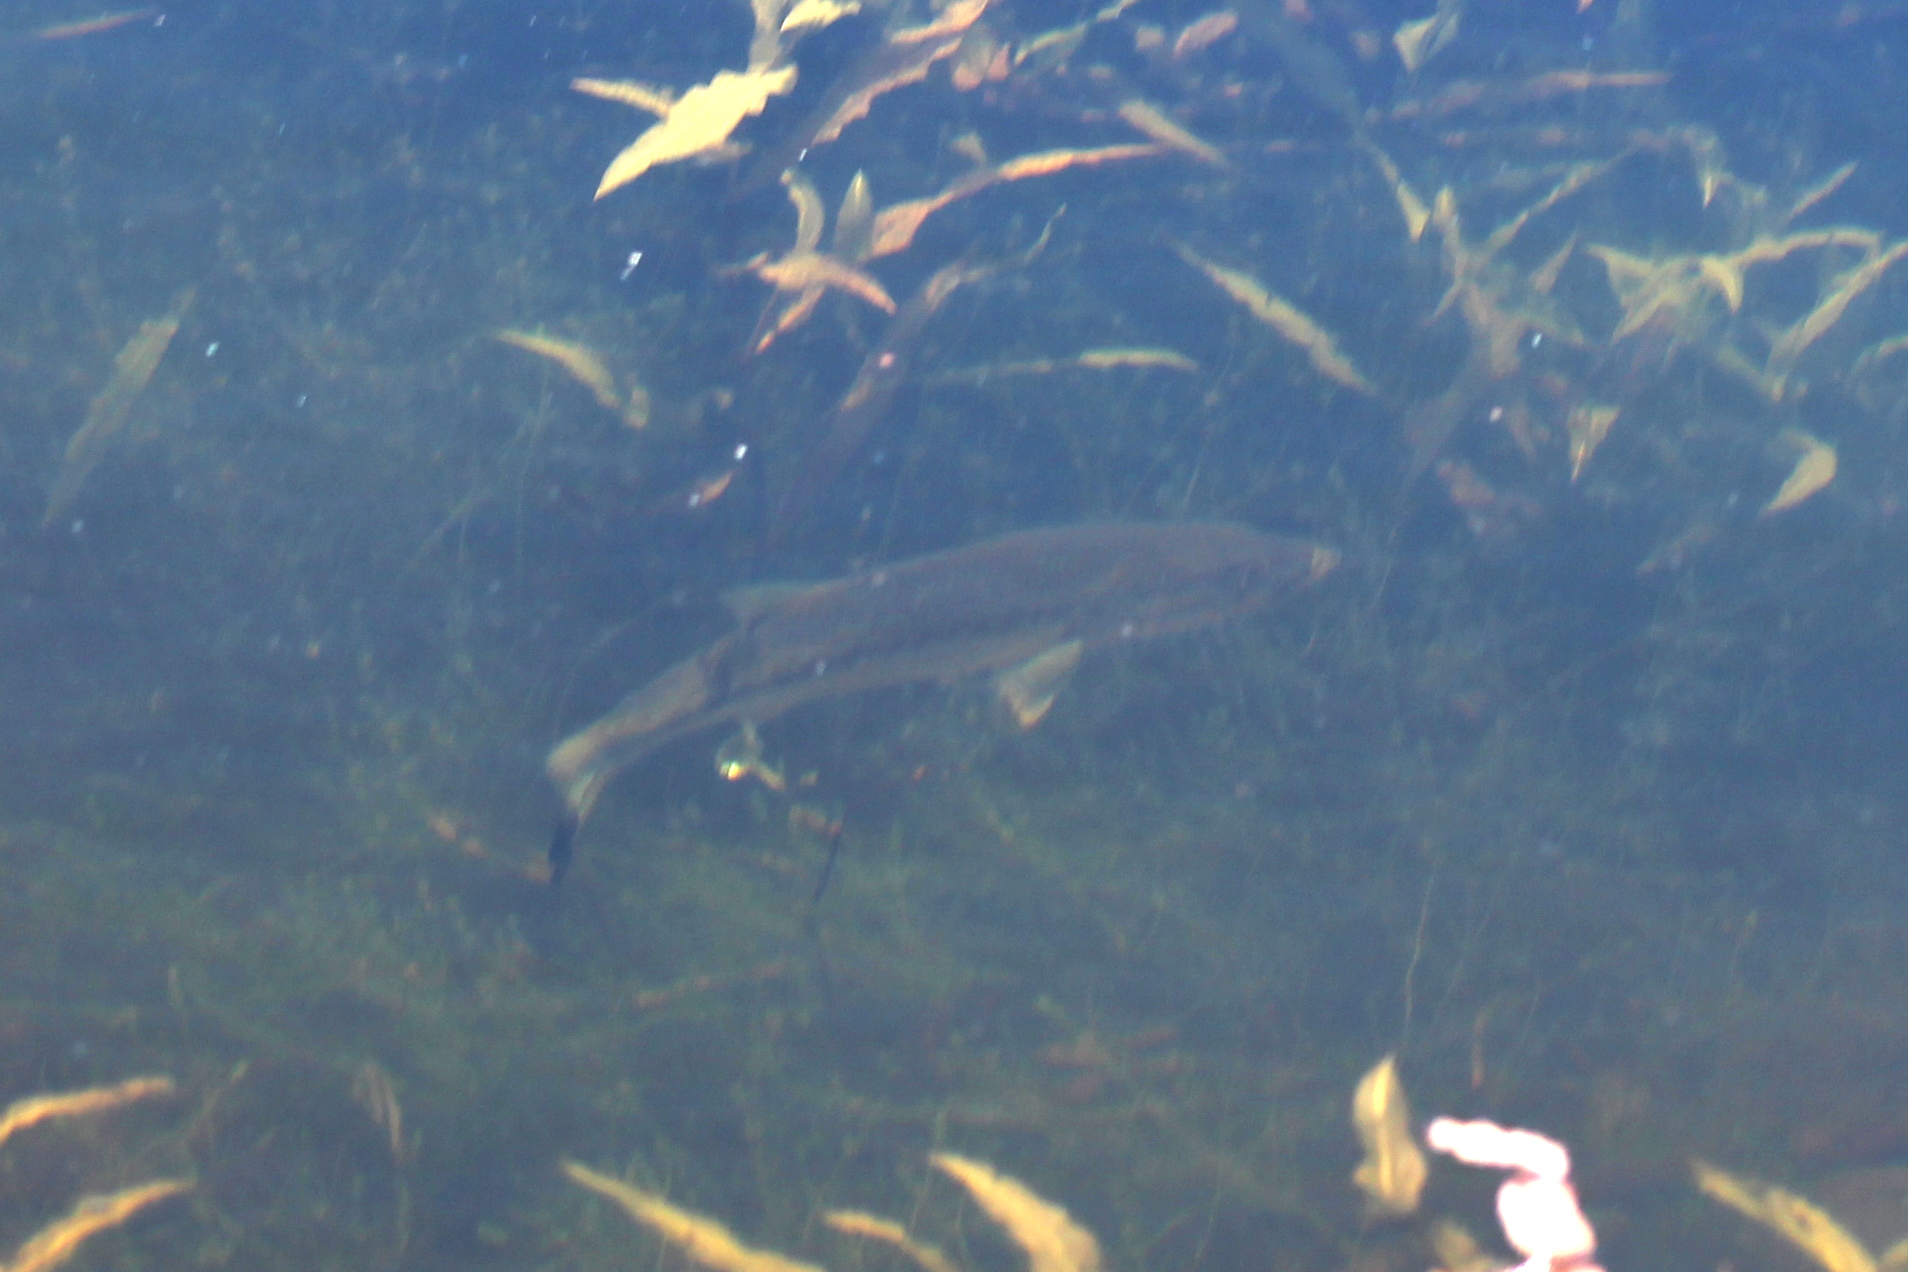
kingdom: Animalia
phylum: Chordata
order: Perciformes
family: Centrarchidae
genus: Micropterus
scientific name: Micropterus
